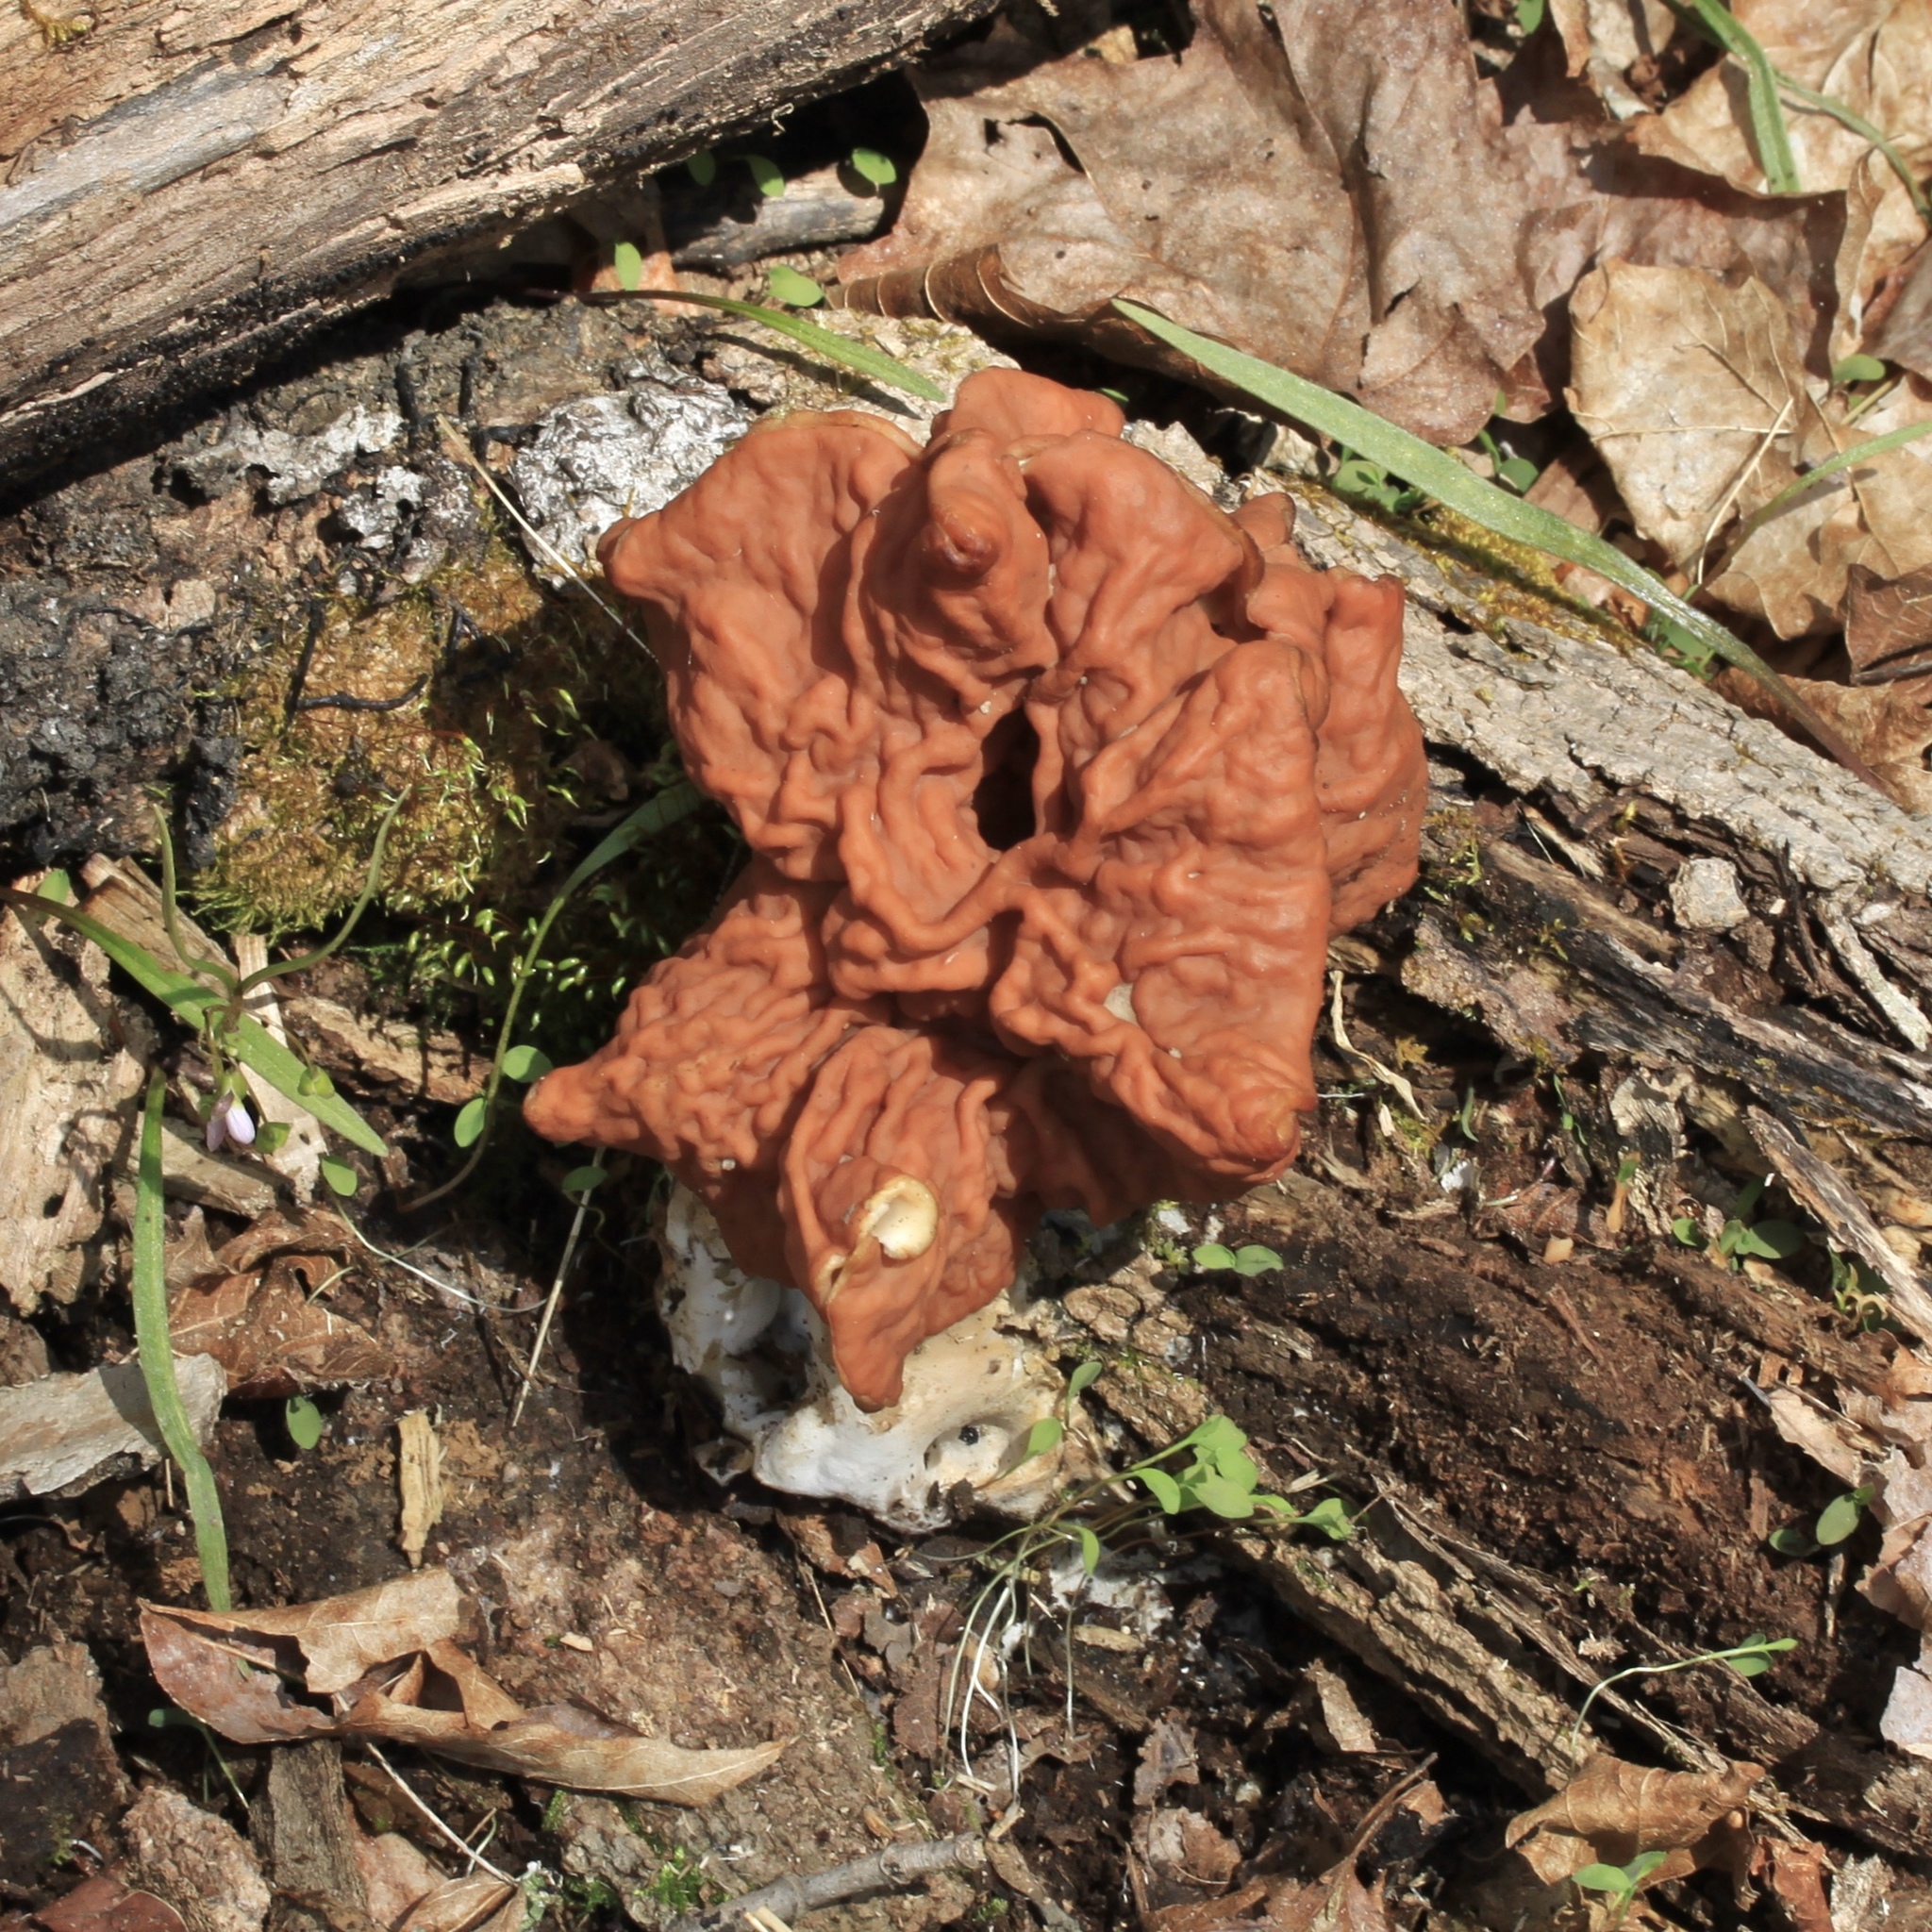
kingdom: Fungi
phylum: Ascomycota
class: Pezizomycetes
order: Pezizales
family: Discinaceae
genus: Discina
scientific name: Discina brunnea
